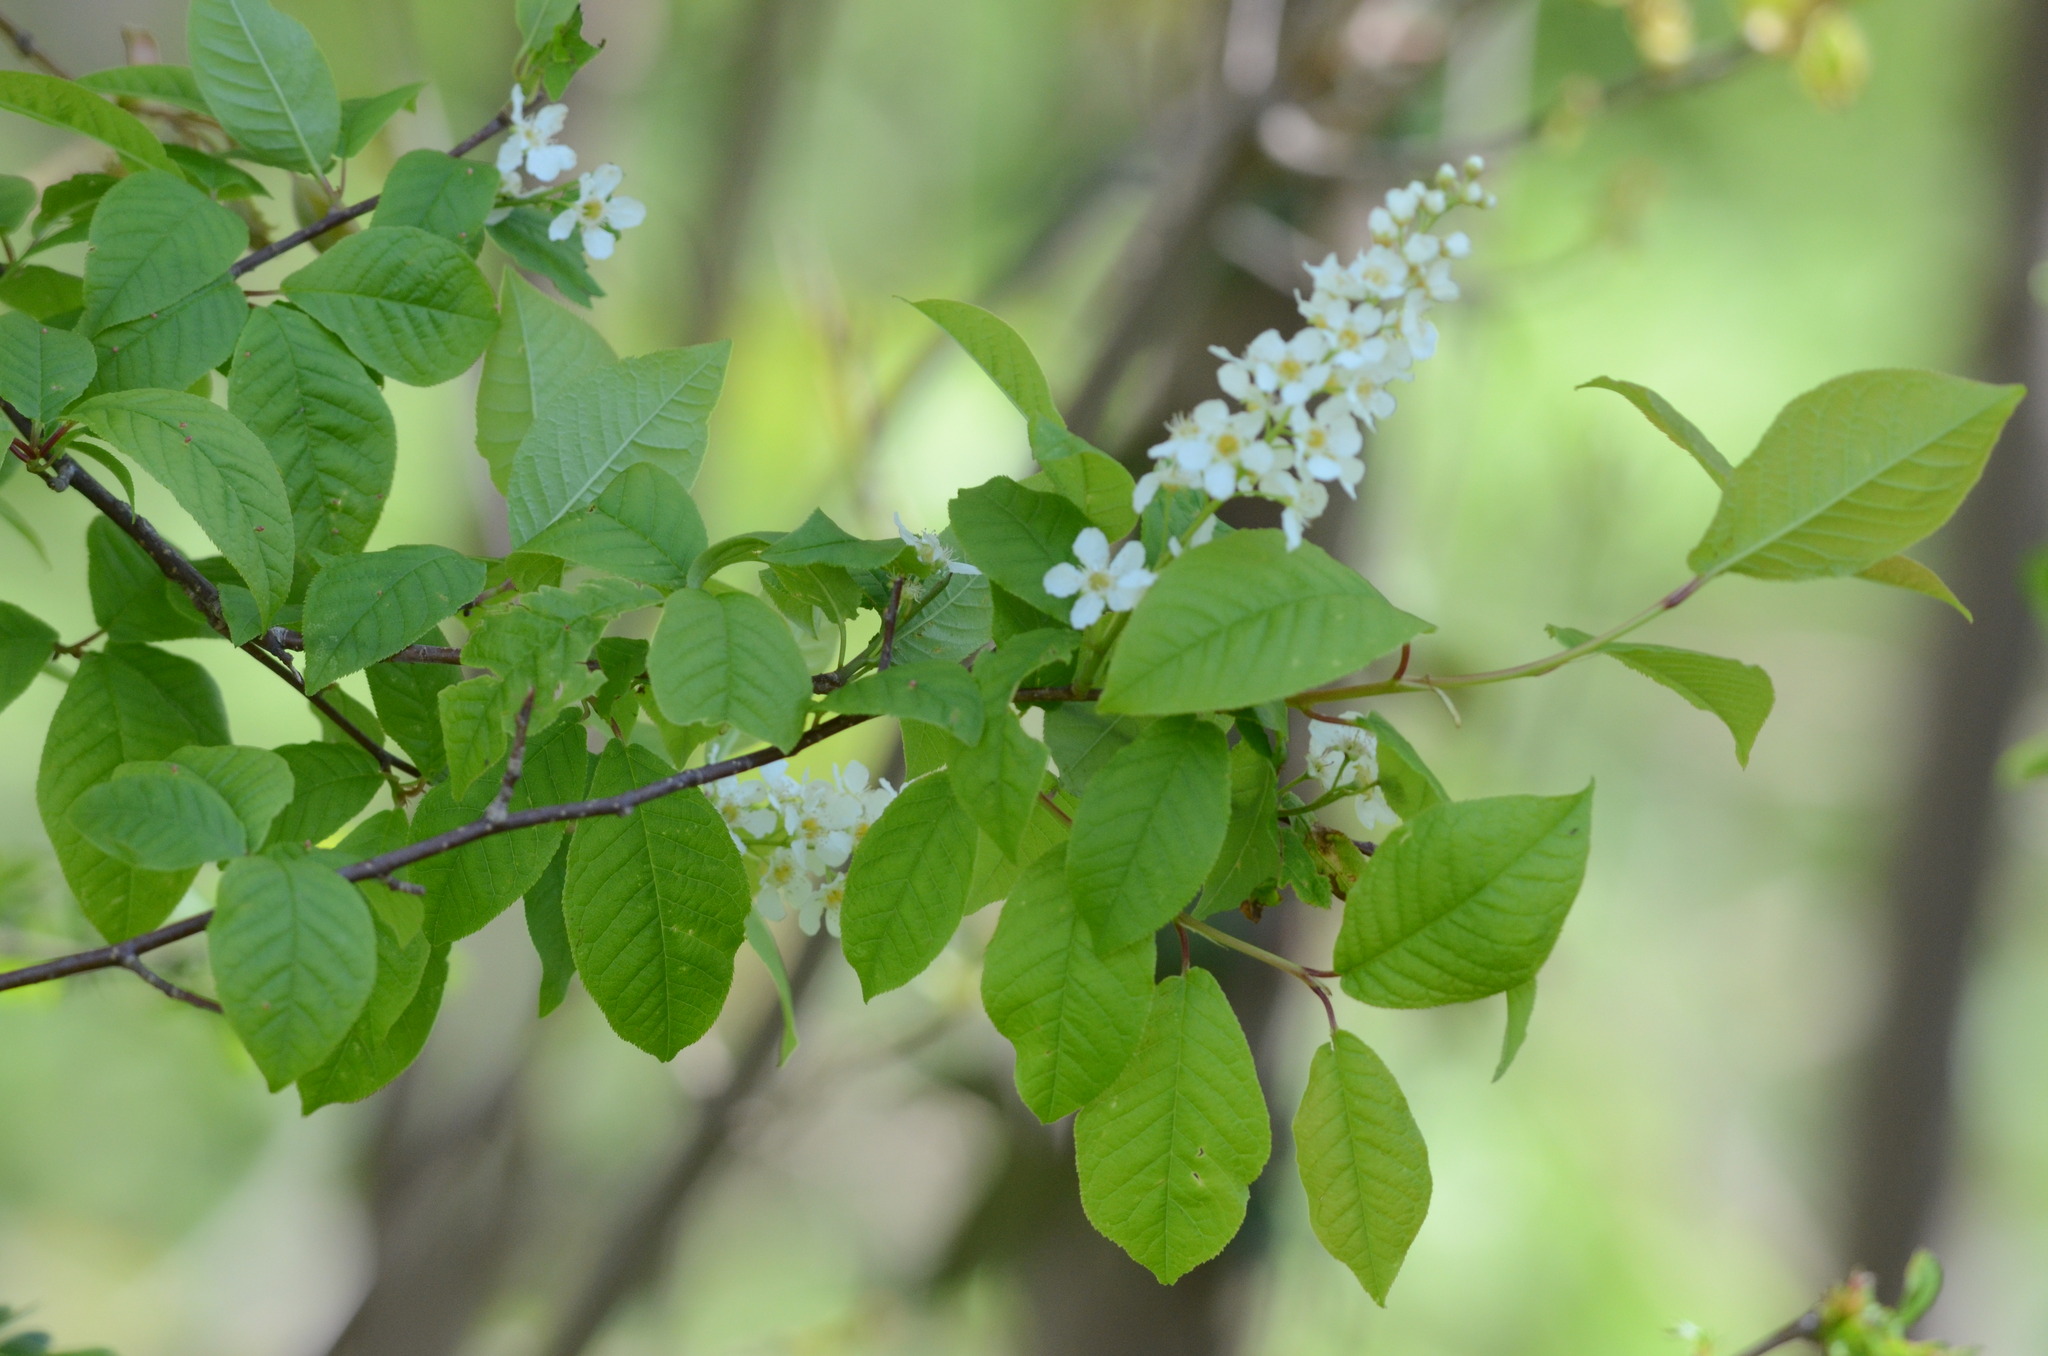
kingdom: Plantae
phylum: Tracheophyta
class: Magnoliopsida
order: Rosales
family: Rosaceae
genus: Prunus
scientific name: Prunus padus
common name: Bird cherry
